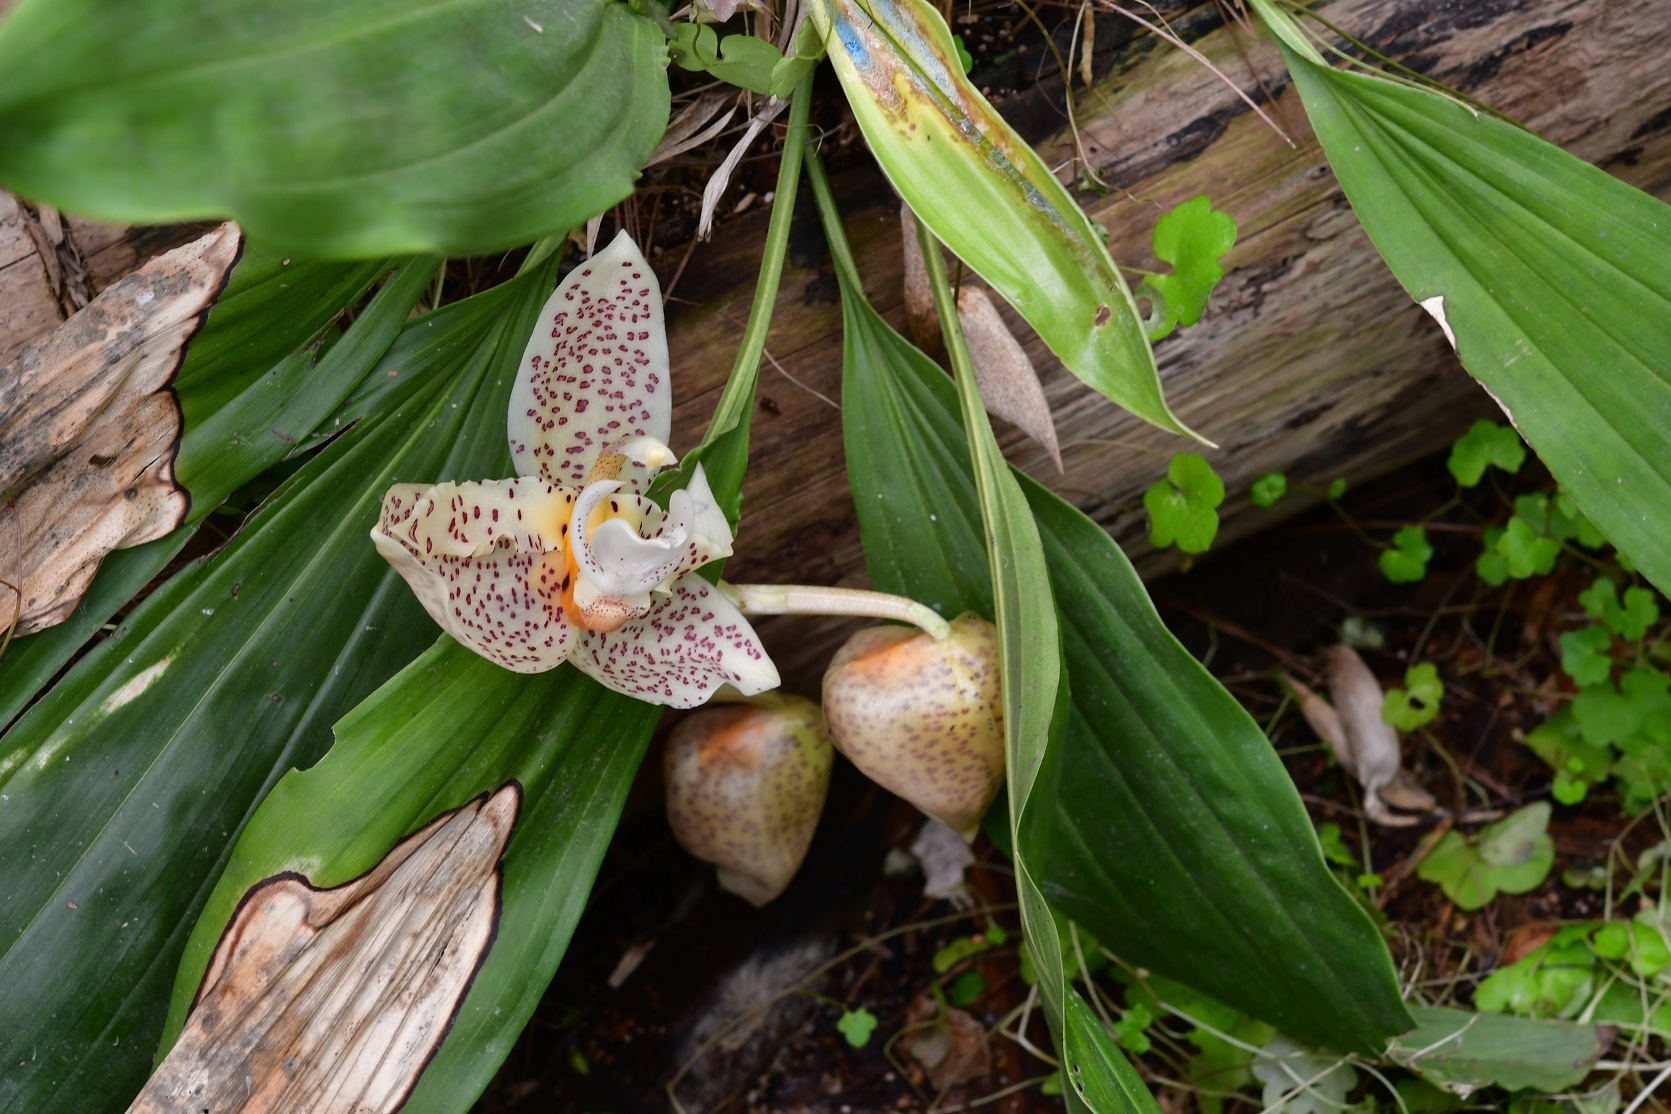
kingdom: Plantae
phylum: Tracheophyta
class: Liliopsida
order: Asparagales
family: Orchidaceae
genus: Stanhopea
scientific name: Stanhopea oculata
